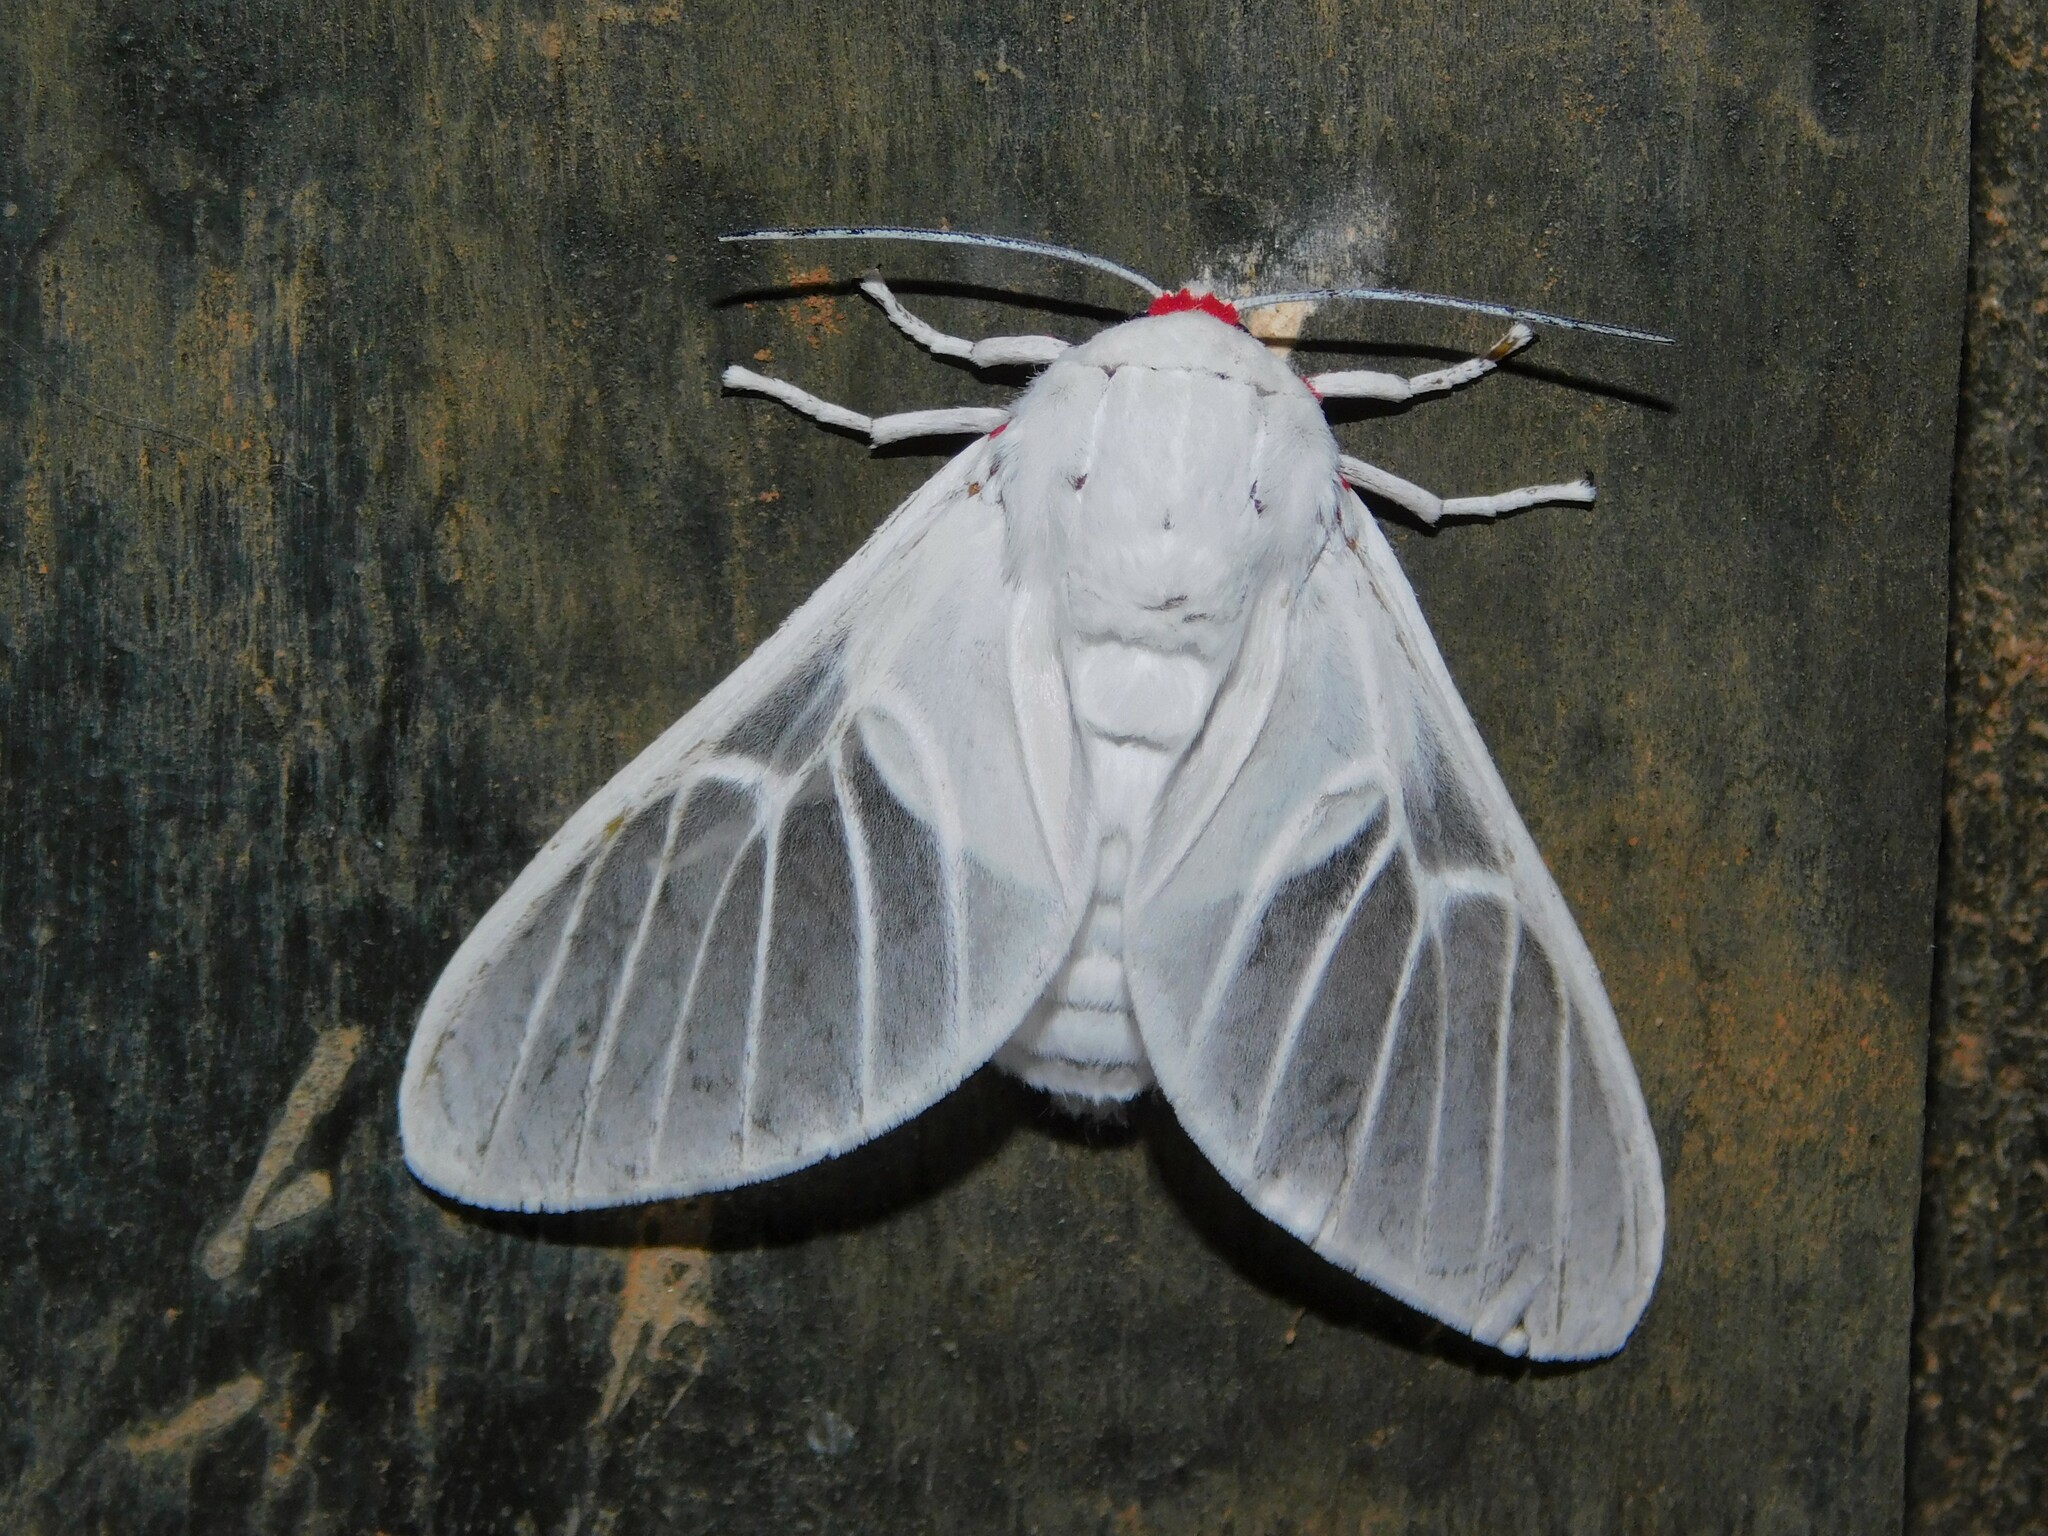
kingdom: Animalia
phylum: Arthropoda
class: Insecta
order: Lepidoptera
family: Erebidae
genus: Balacra
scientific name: Balacra pulchra
